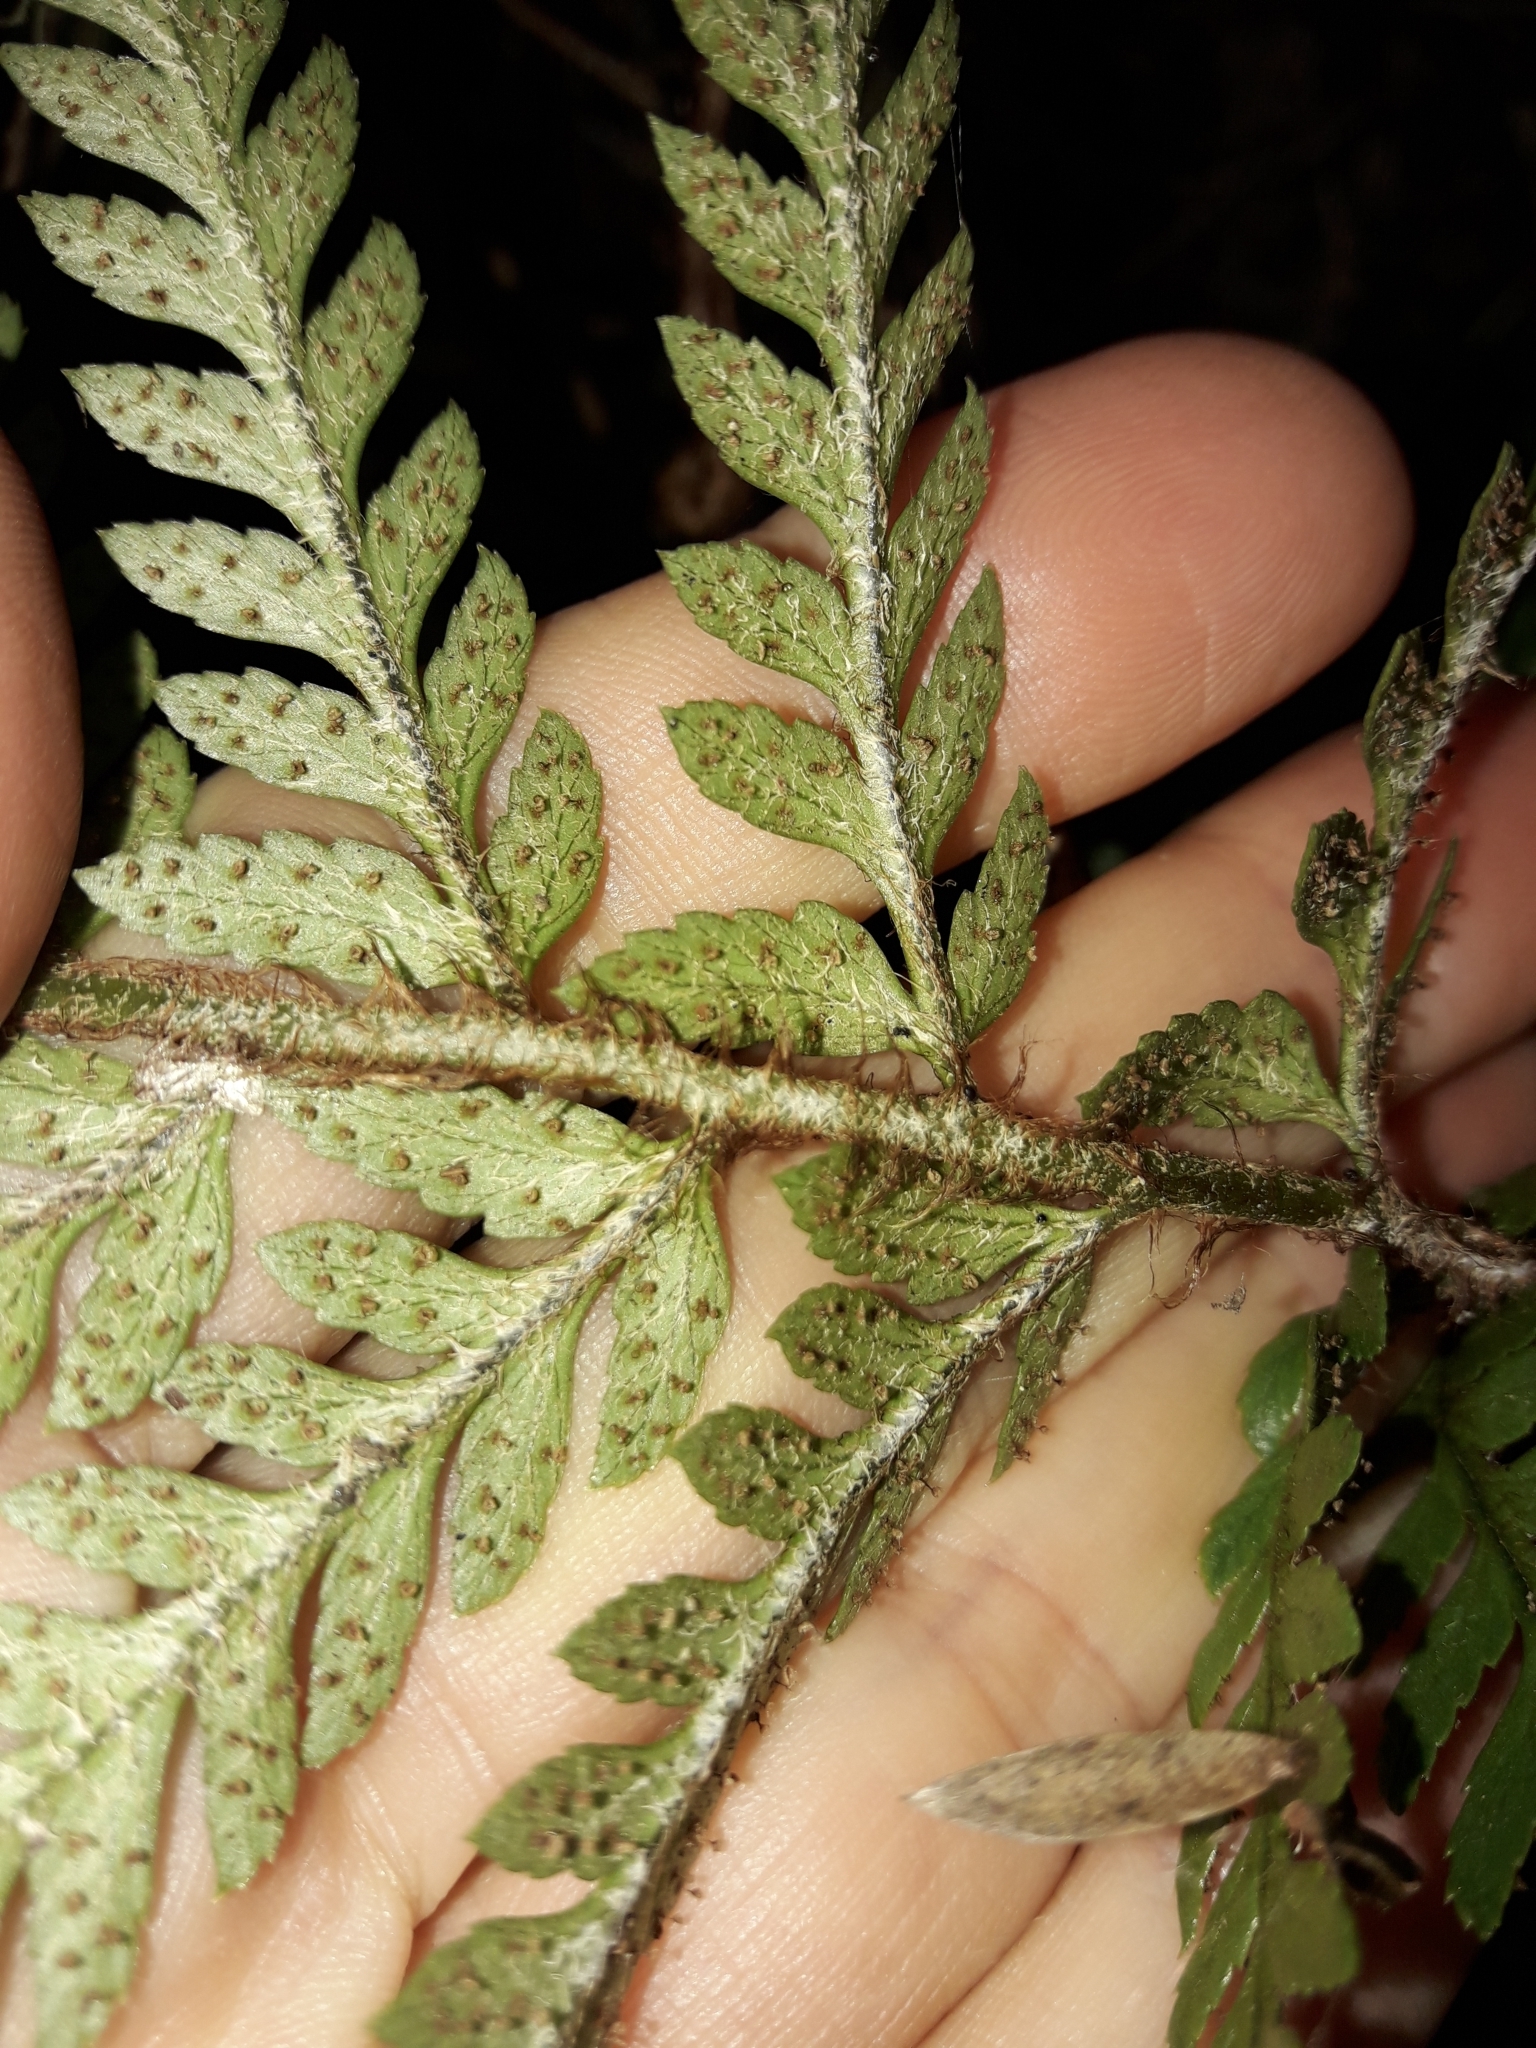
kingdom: Plantae
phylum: Tracheophyta
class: Polypodiopsida
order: Polypodiales
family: Dryopteridaceae
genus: Polystichum
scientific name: Polystichum wawranum
